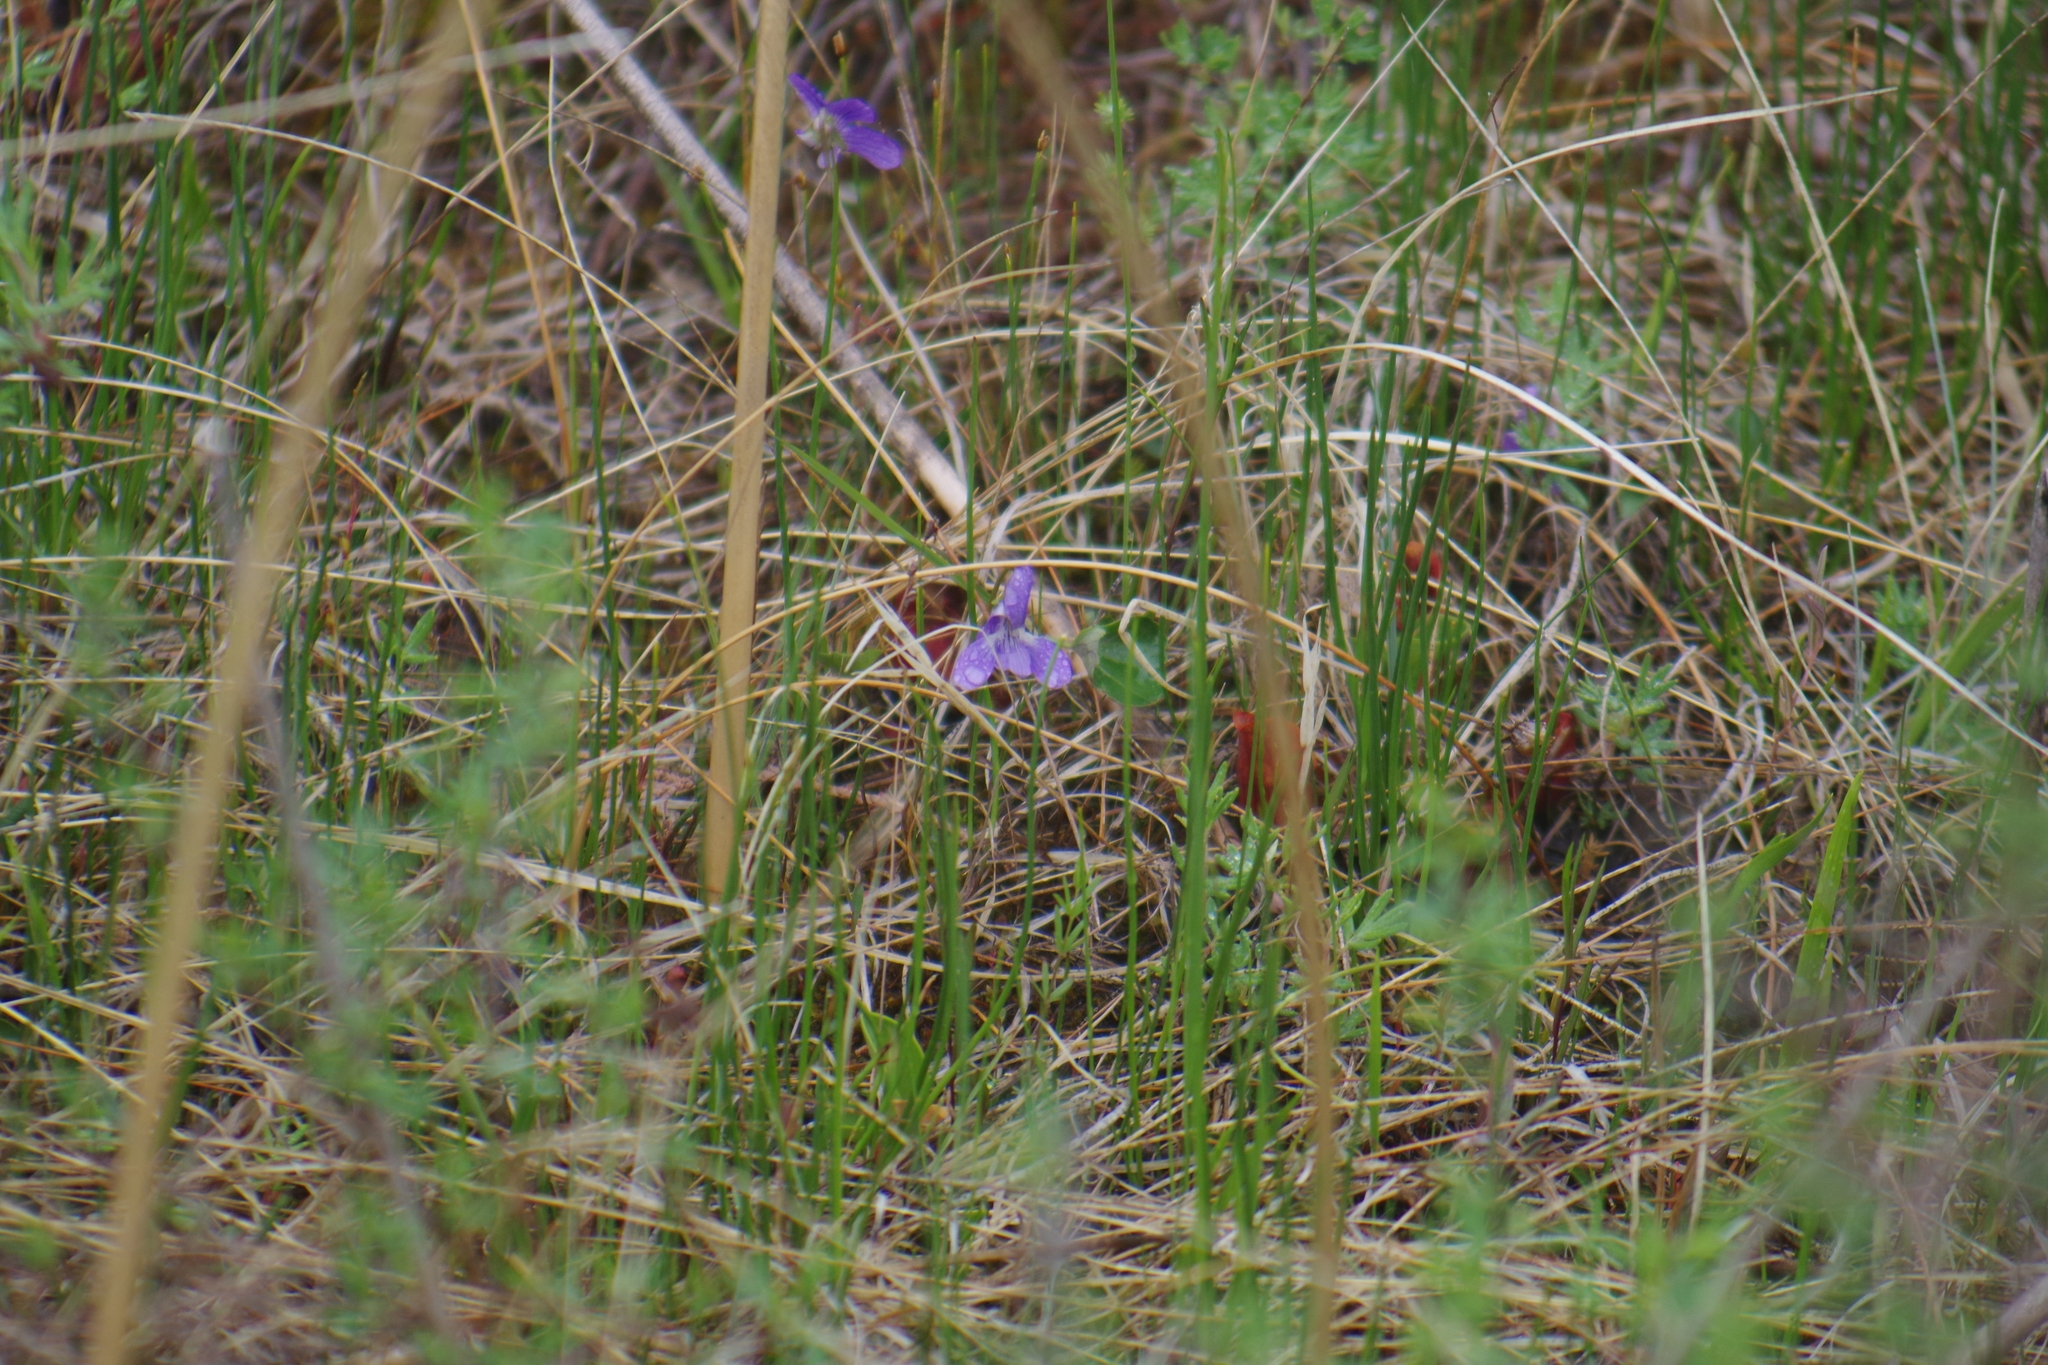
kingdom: Plantae
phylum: Tracheophyta
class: Magnoliopsida
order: Malpighiales
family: Violaceae
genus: Viola
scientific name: Viola nephrophylla
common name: Blue meadow violet
